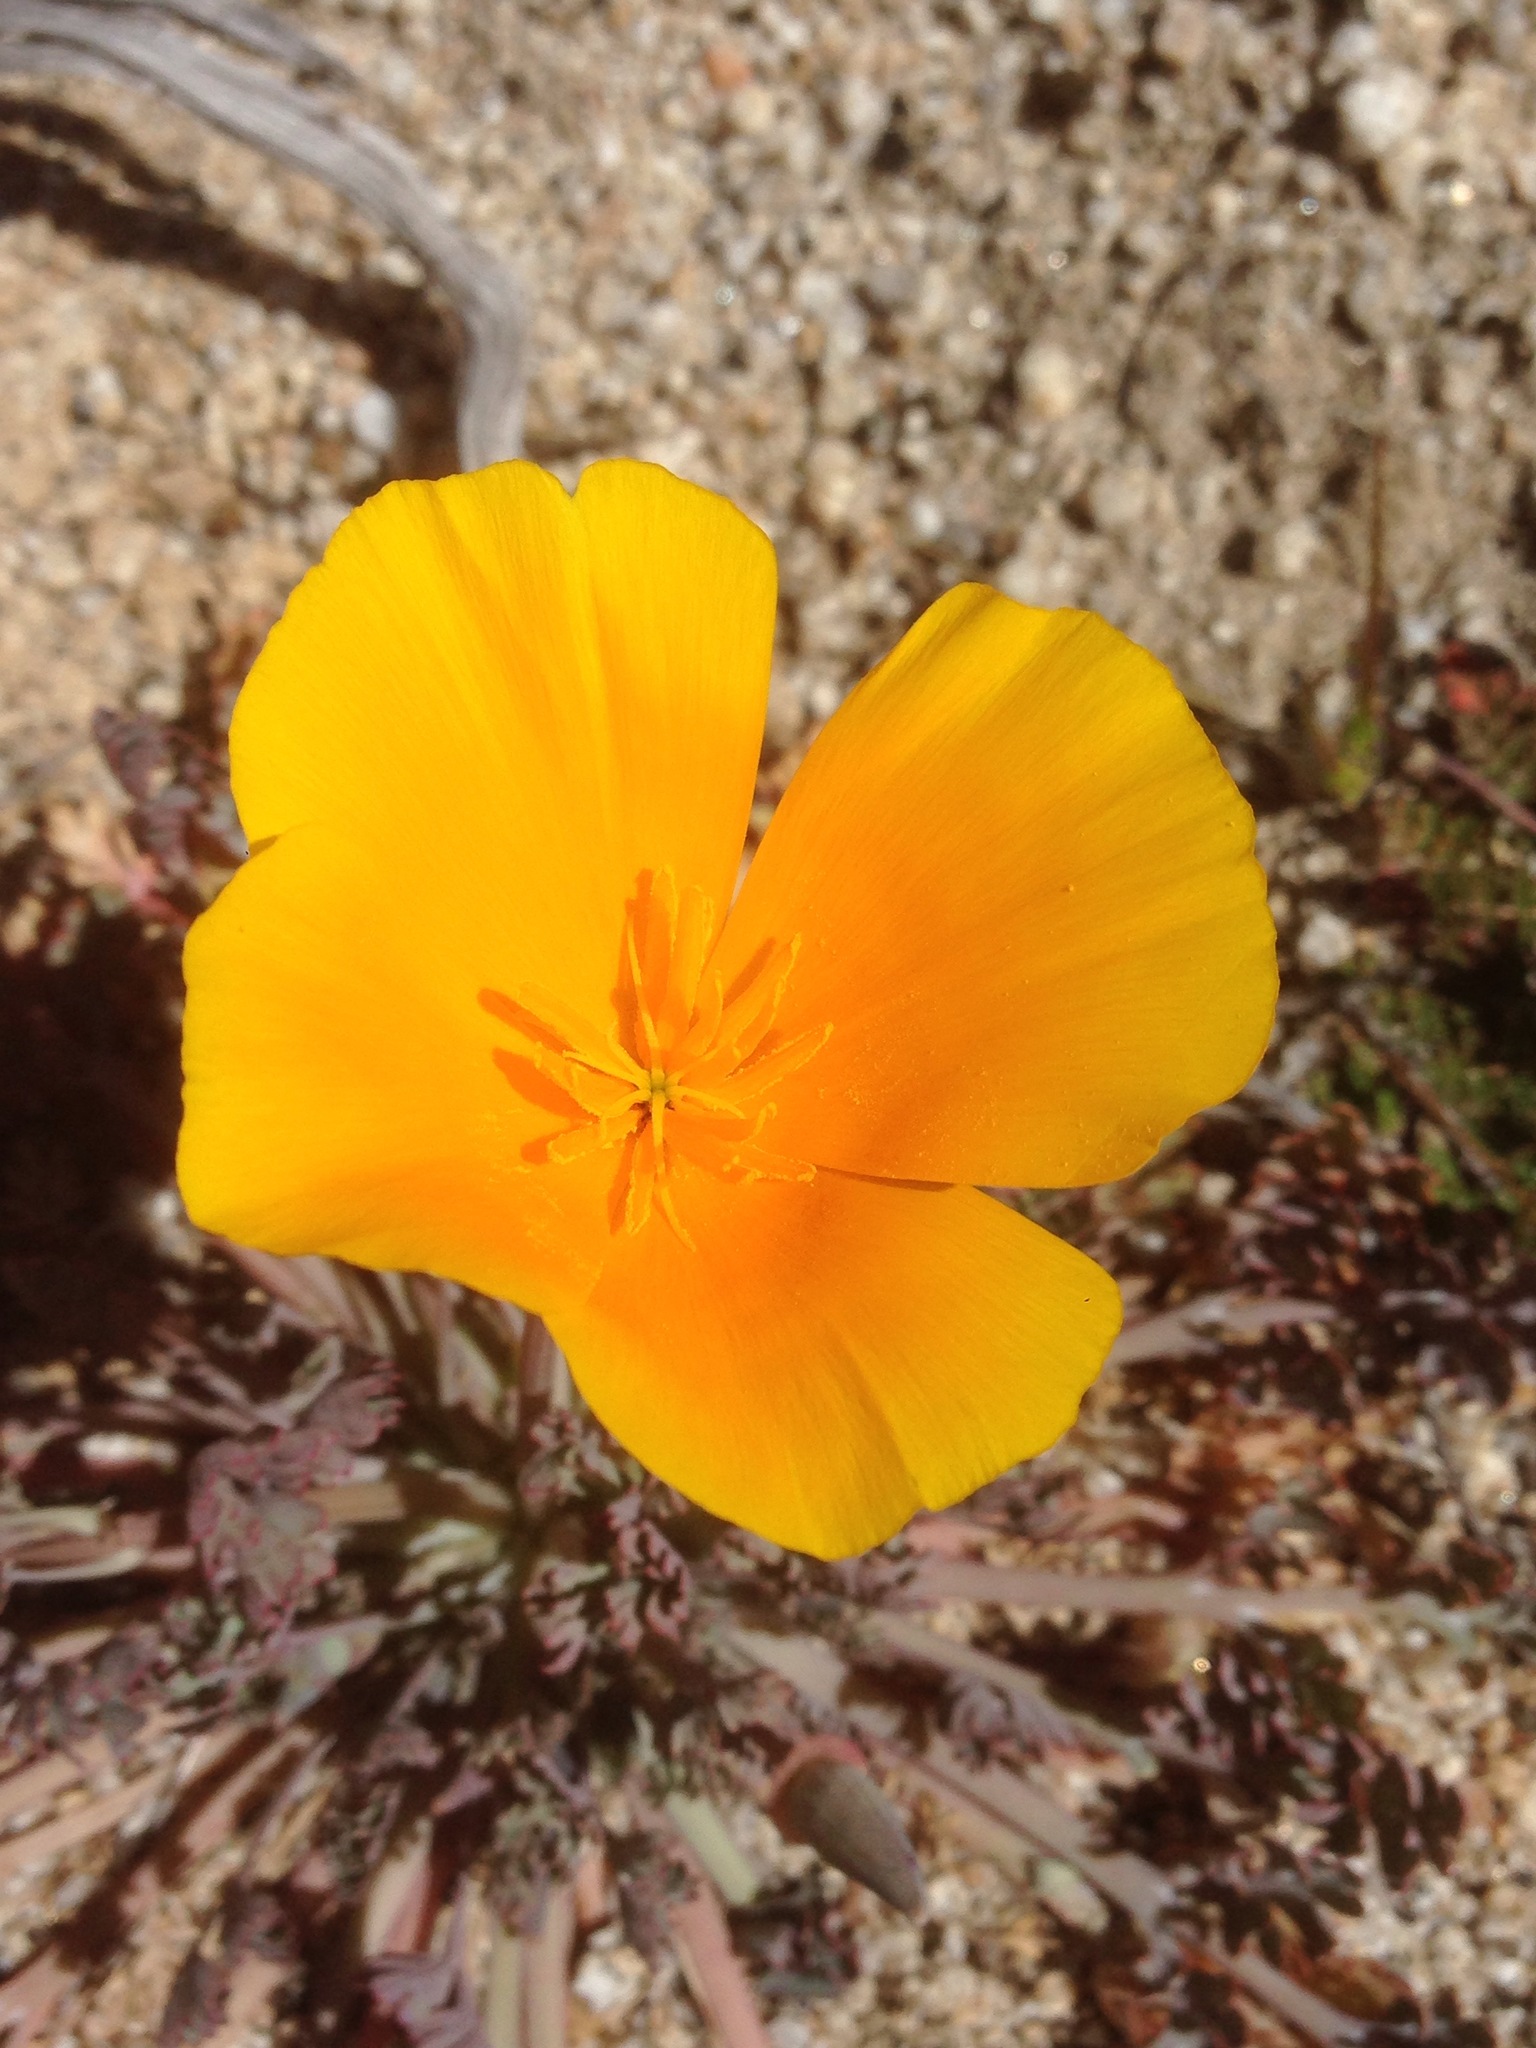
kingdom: Plantae
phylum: Tracheophyta
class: Magnoliopsida
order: Ranunculales
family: Papaveraceae
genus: Eschscholzia
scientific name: Eschscholzia californica
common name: California poppy
